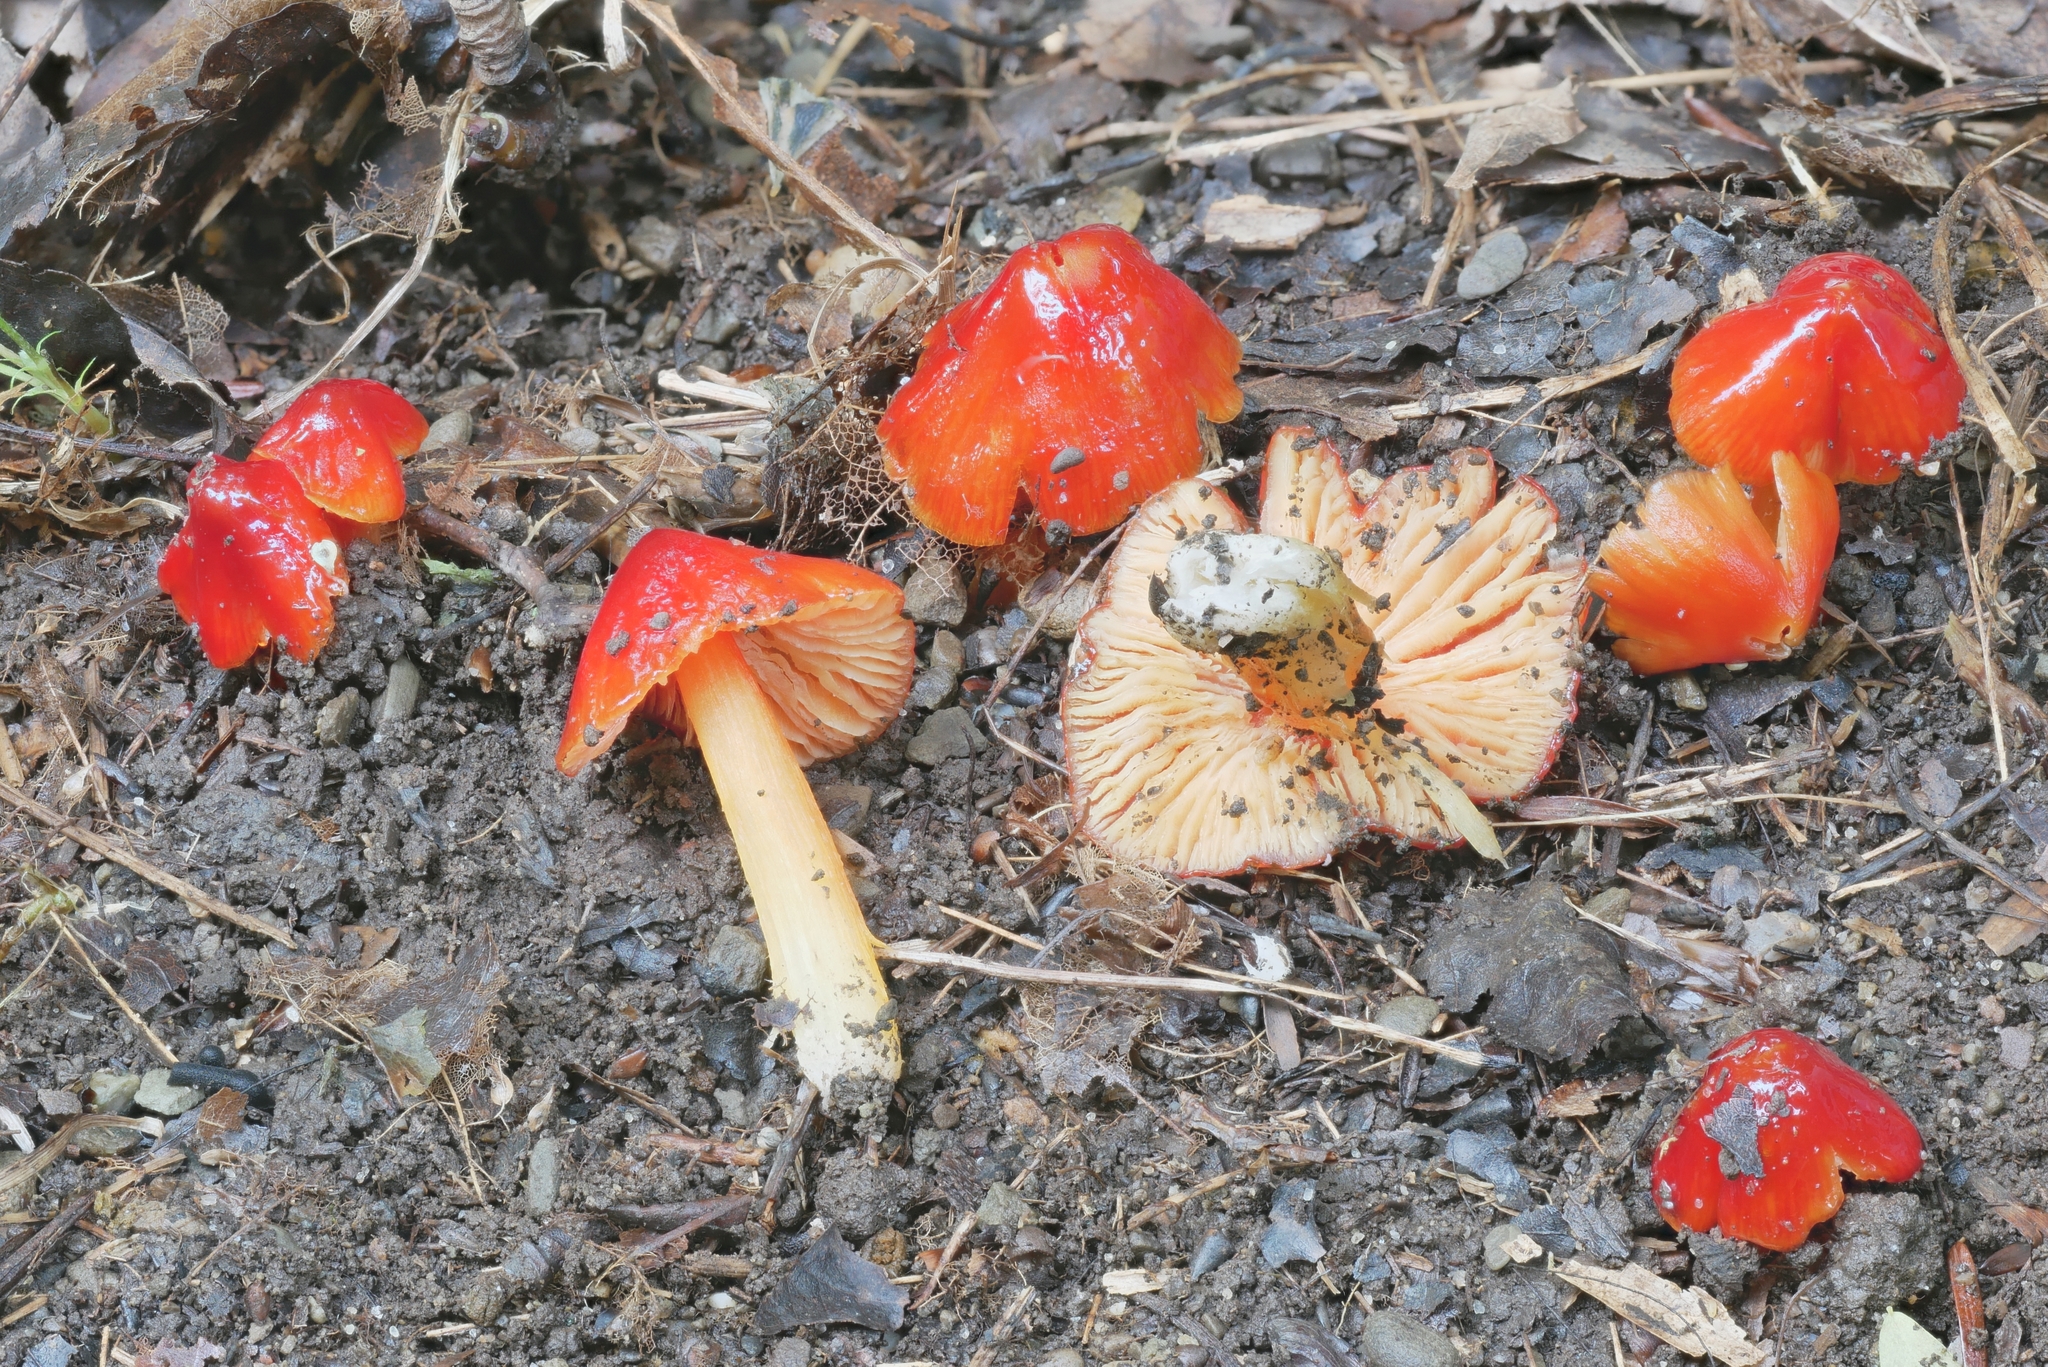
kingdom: Fungi
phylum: Basidiomycota
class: Agaricomycetes
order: Agaricales
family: Hygrophoraceae
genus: Hygrocybe
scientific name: Hygrocybe cuspidata
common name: Candy apple waxy cap
